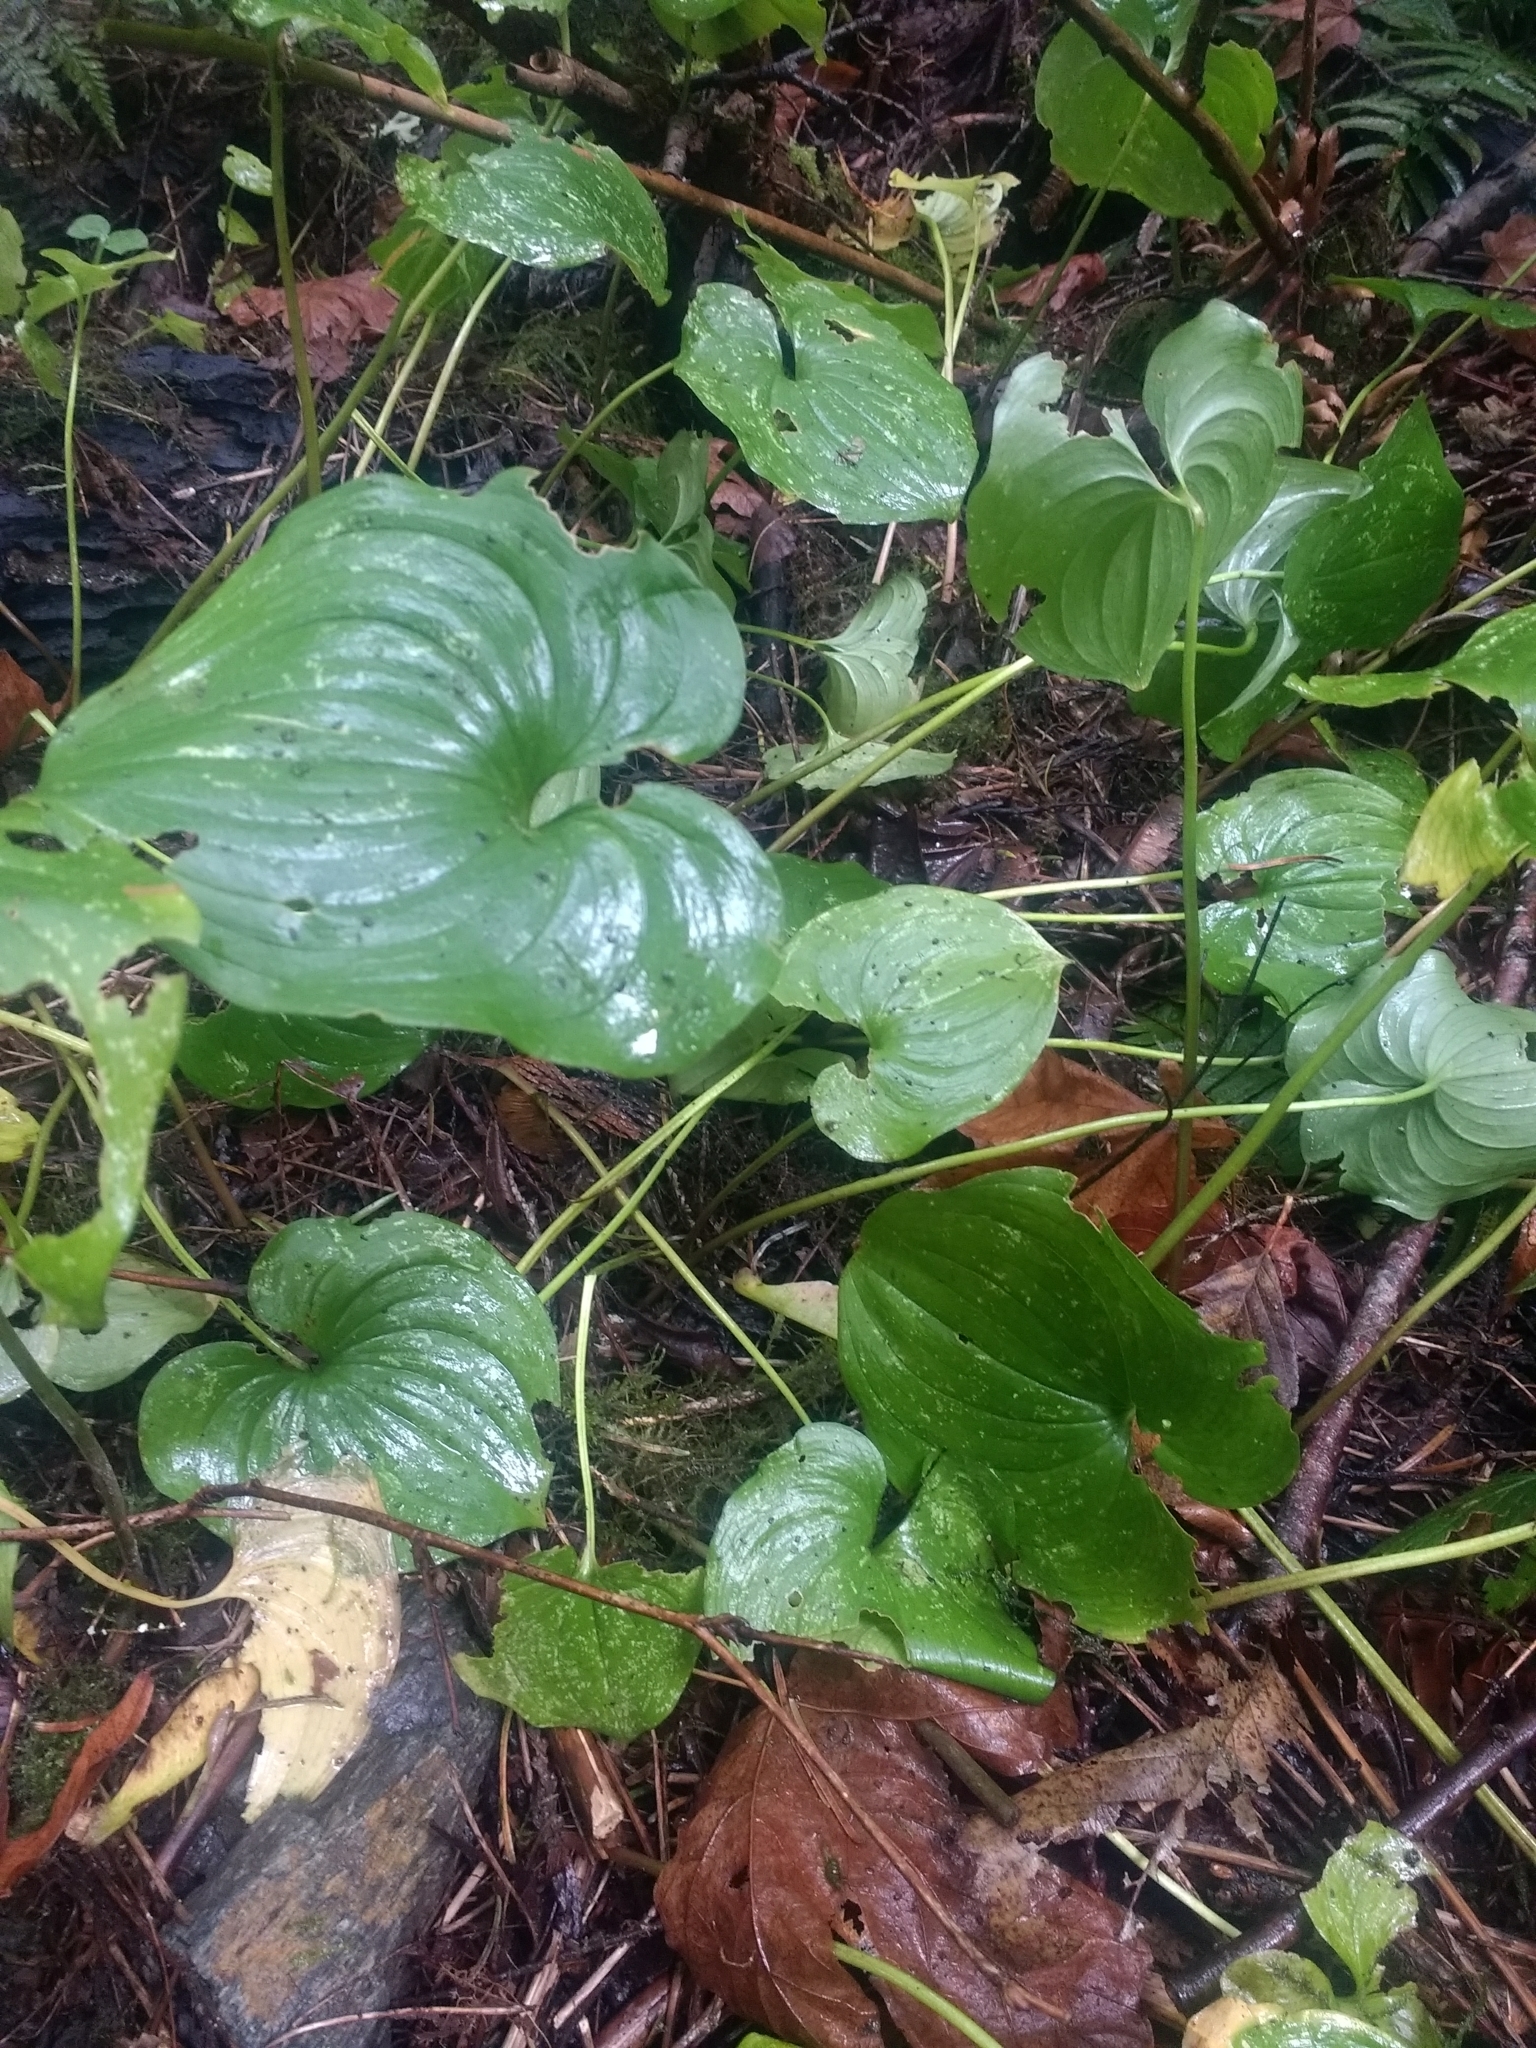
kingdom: Plantae
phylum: Tracheophyta
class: Liliopsida
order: Asparagales
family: Asparagaceae
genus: Maianthemum
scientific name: Maianthemum dilatatum
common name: False lily-of-the-valley
